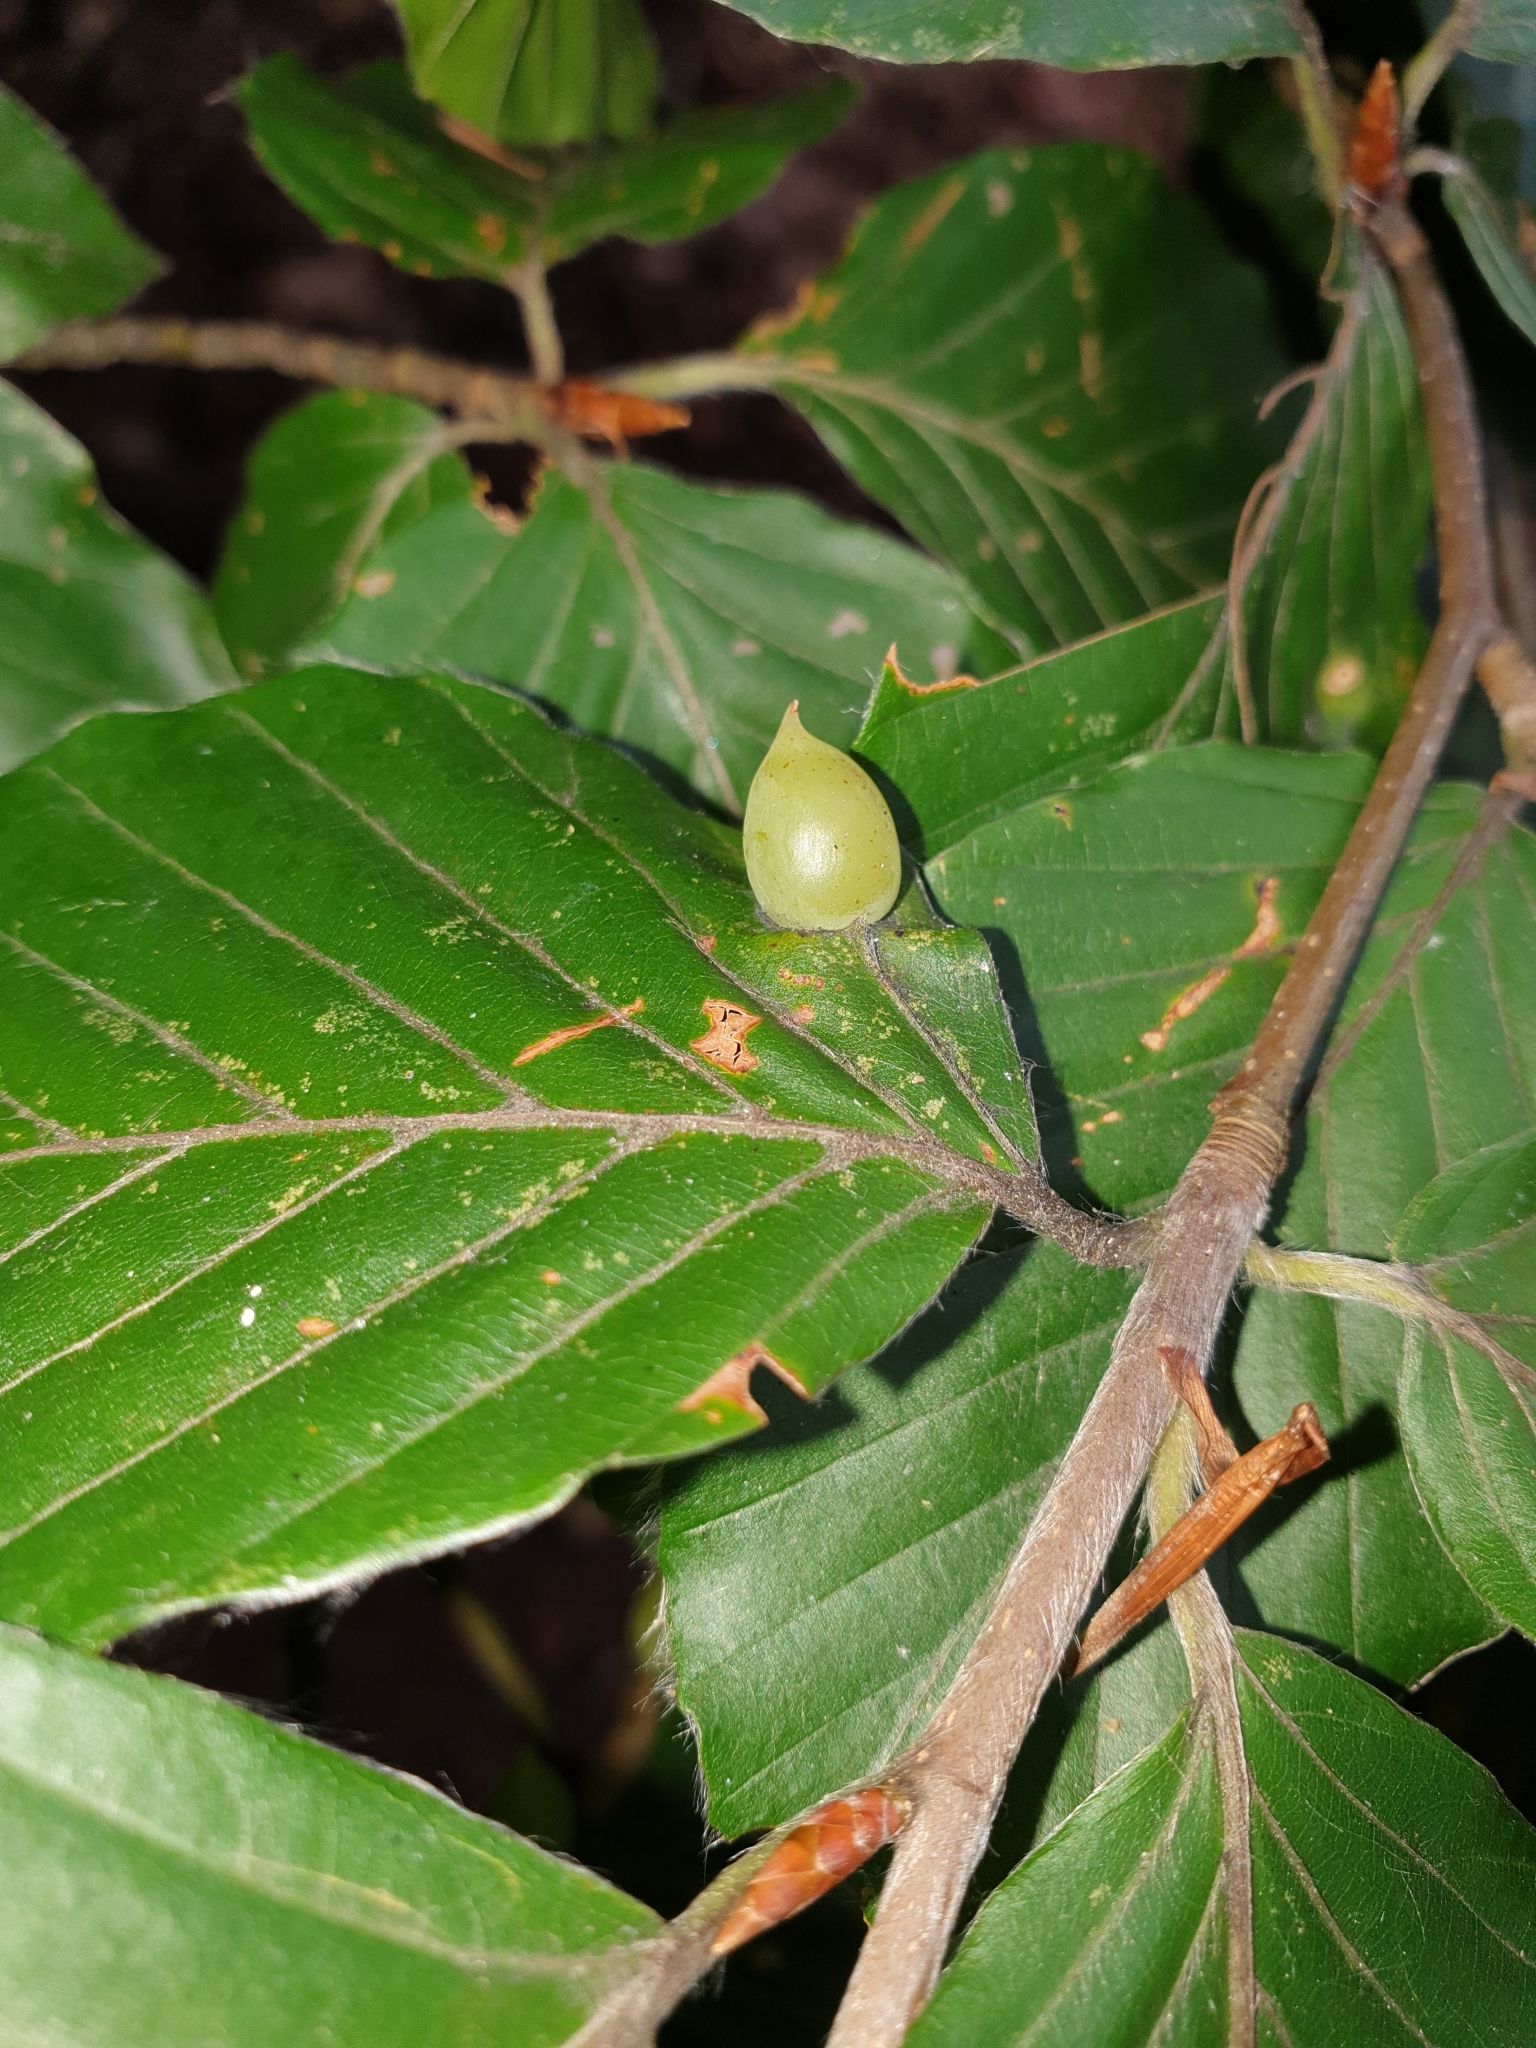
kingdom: Animalia
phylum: Arthropoda
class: Insecta
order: Diptera
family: Cecidomyiidae
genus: Mikiola
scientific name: Mikiola fagi
